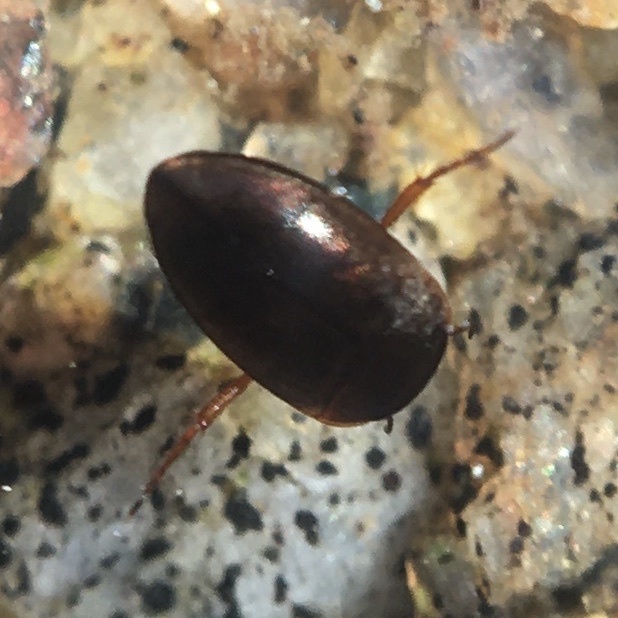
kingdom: Animalia
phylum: Arthropoda
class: Insecta
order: Coleoptera
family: Dytiscidae
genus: Hydrocolus
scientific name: Hydrocolus
